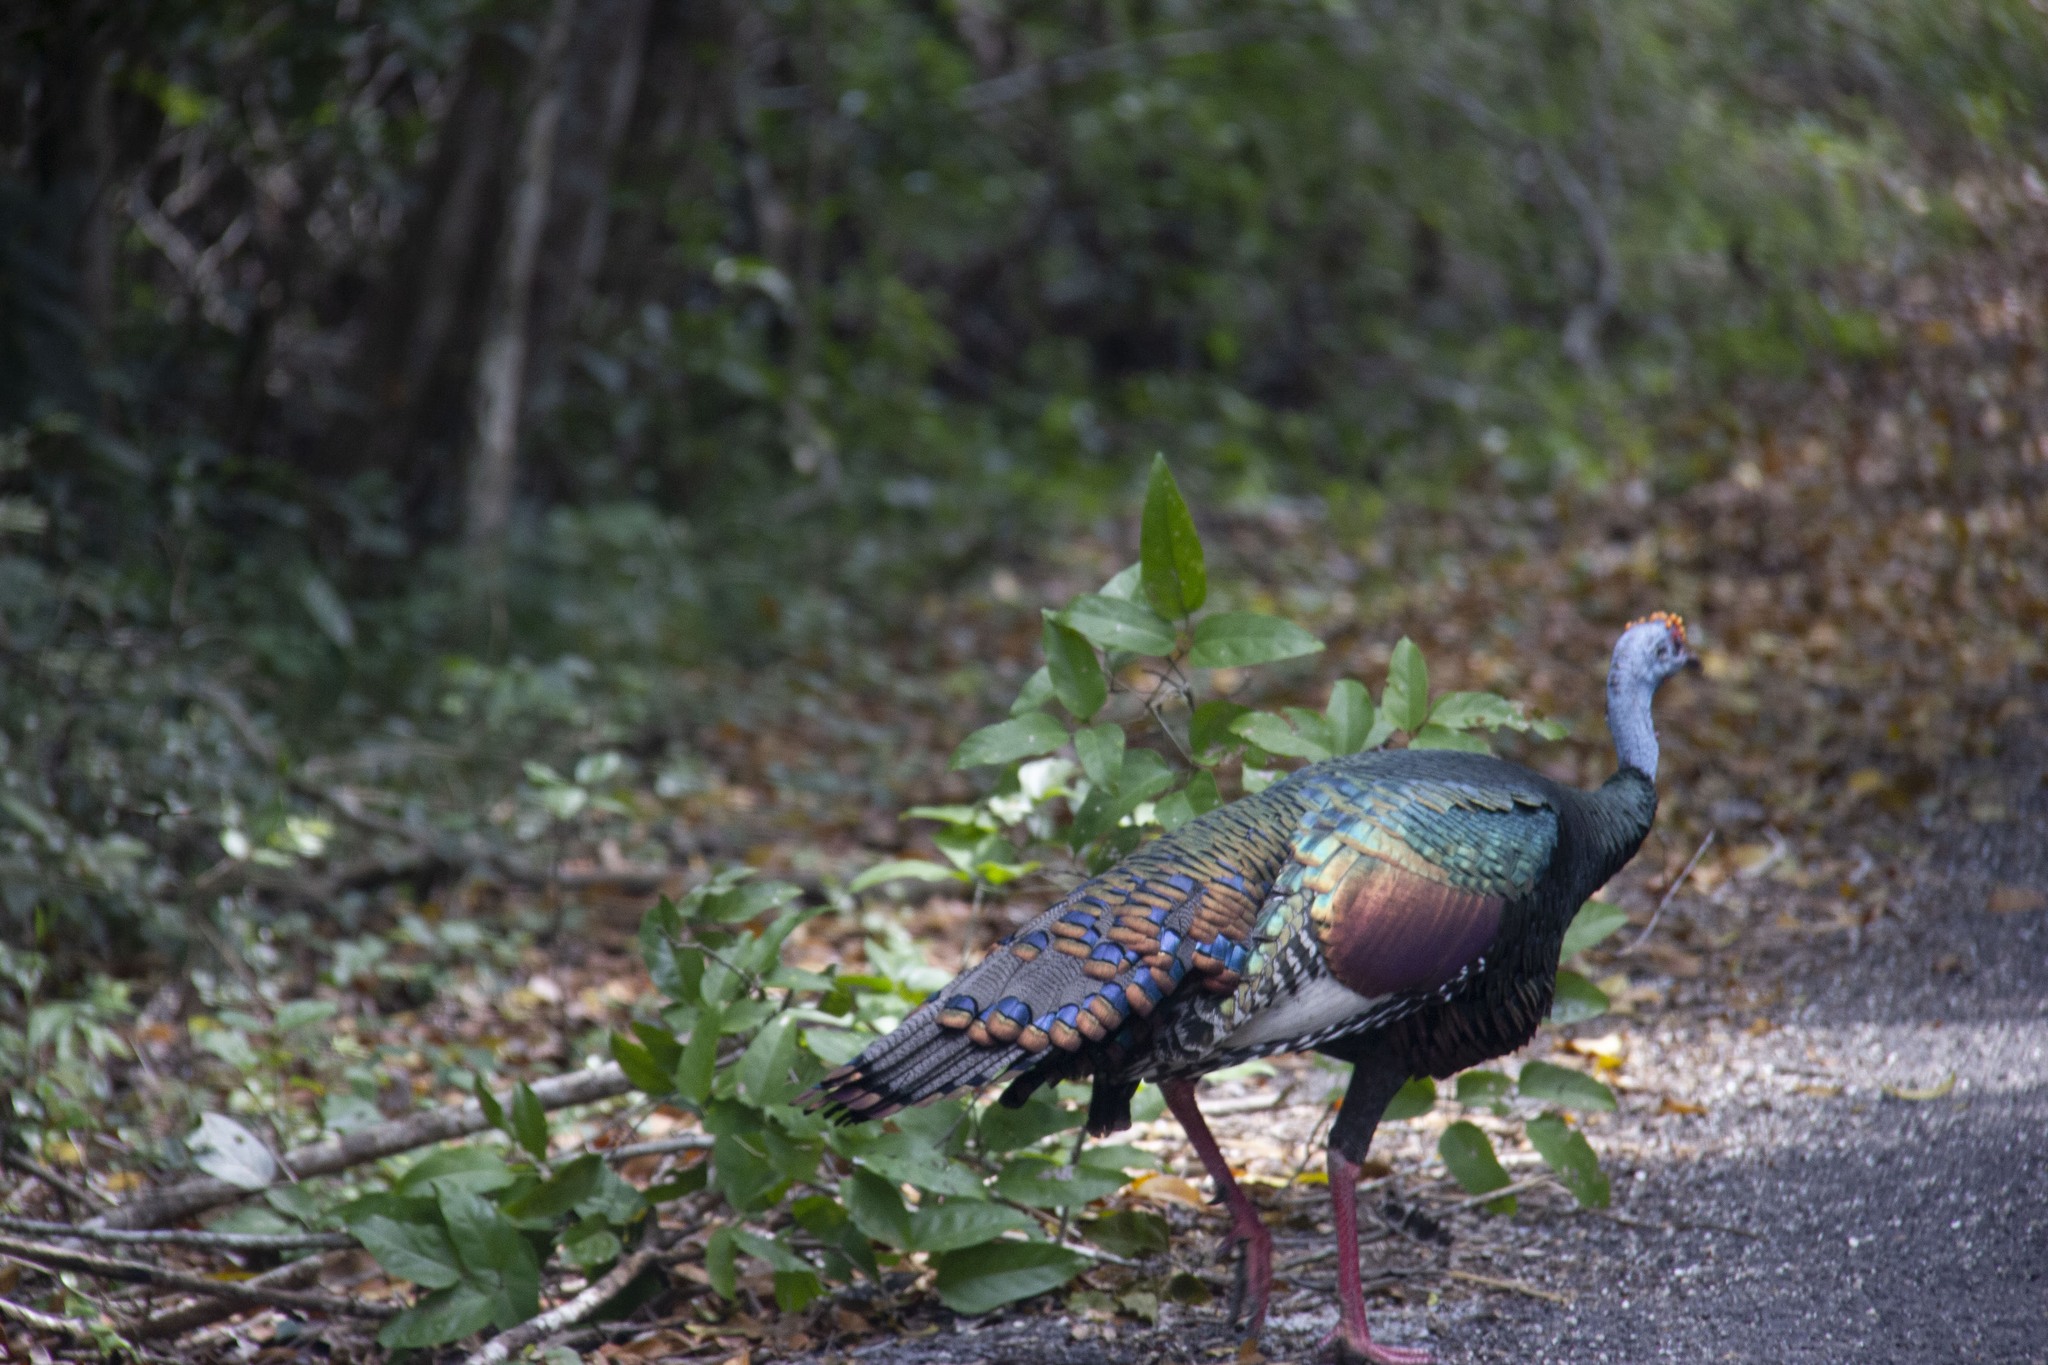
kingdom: Animalia
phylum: Chordata
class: Aves
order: Galliformes
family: Phasianidae
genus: Meleagris
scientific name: Meleagris ocellata
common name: Ocellated turkey
